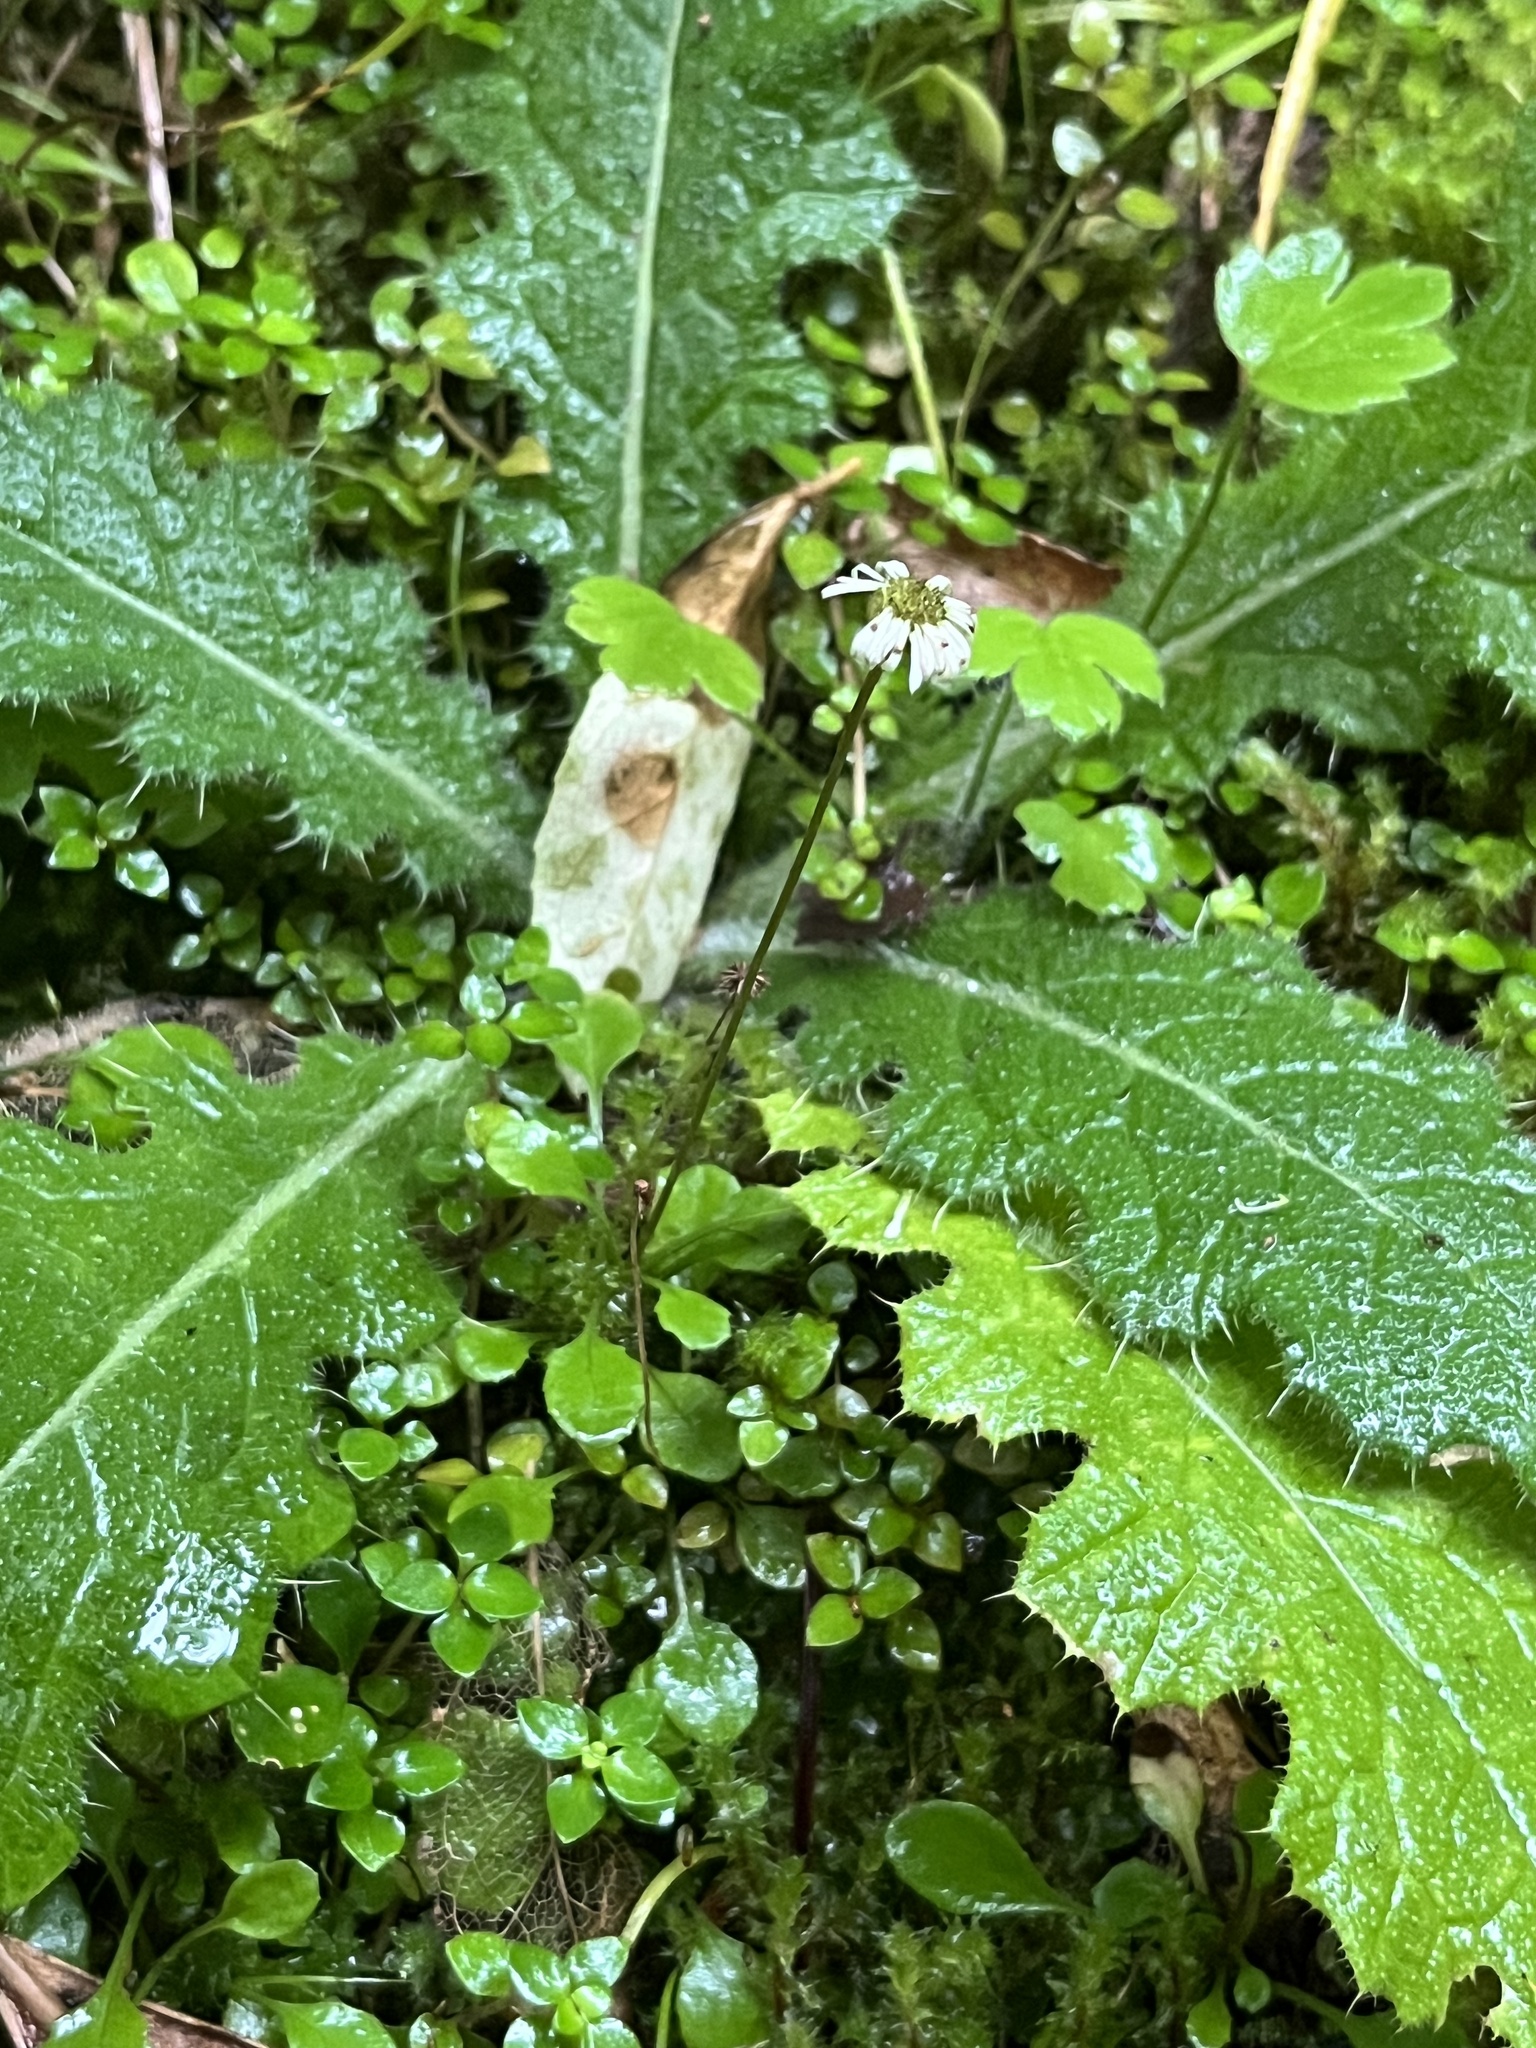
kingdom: Plantae
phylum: Tracheophyta
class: Magnoliopsida
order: Asterales
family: Asteraceae
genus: Lagenophora
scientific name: Lagenophora pumila
